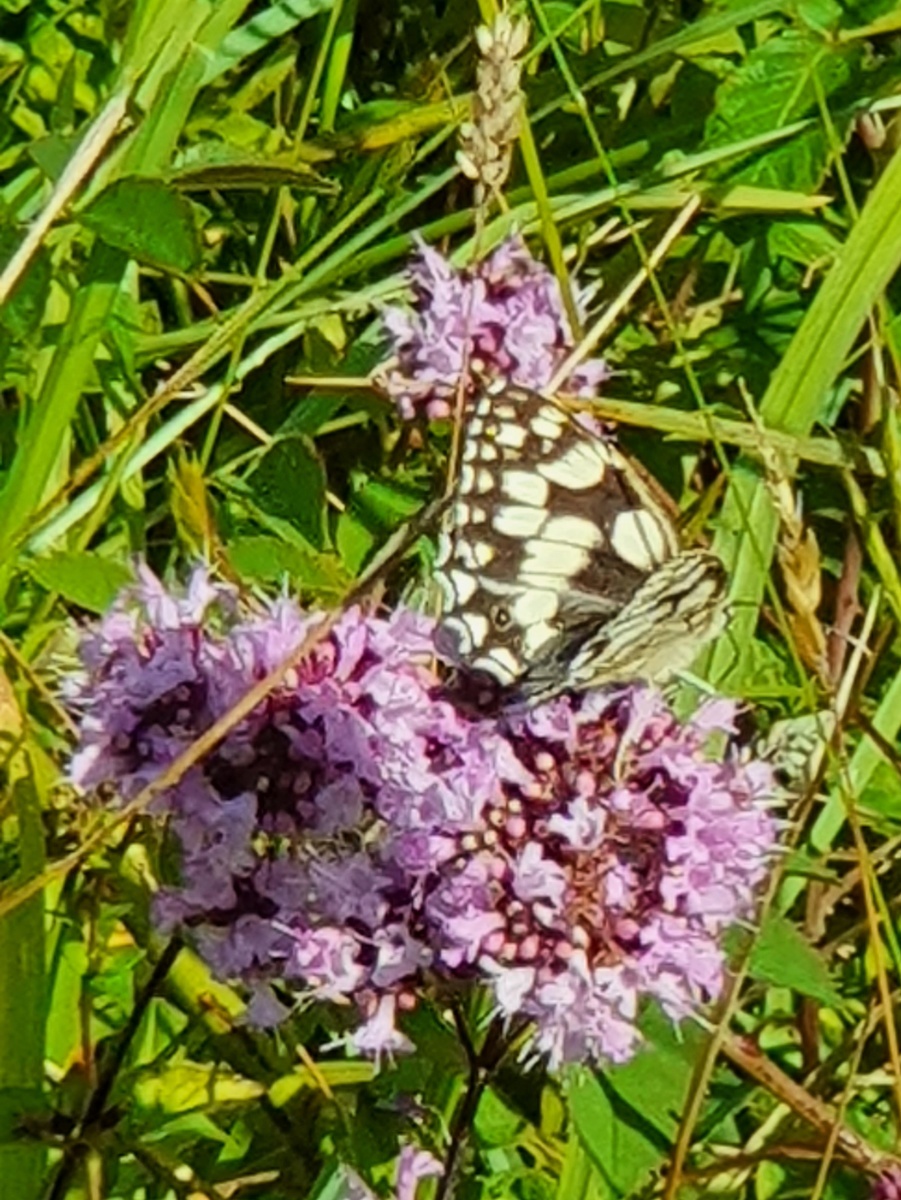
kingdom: Animalia
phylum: Arthropoda
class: Insecta
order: Lepidoptera
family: Nymphalidae
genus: Melanargia
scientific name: Melanargia galathea
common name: Marbled white
